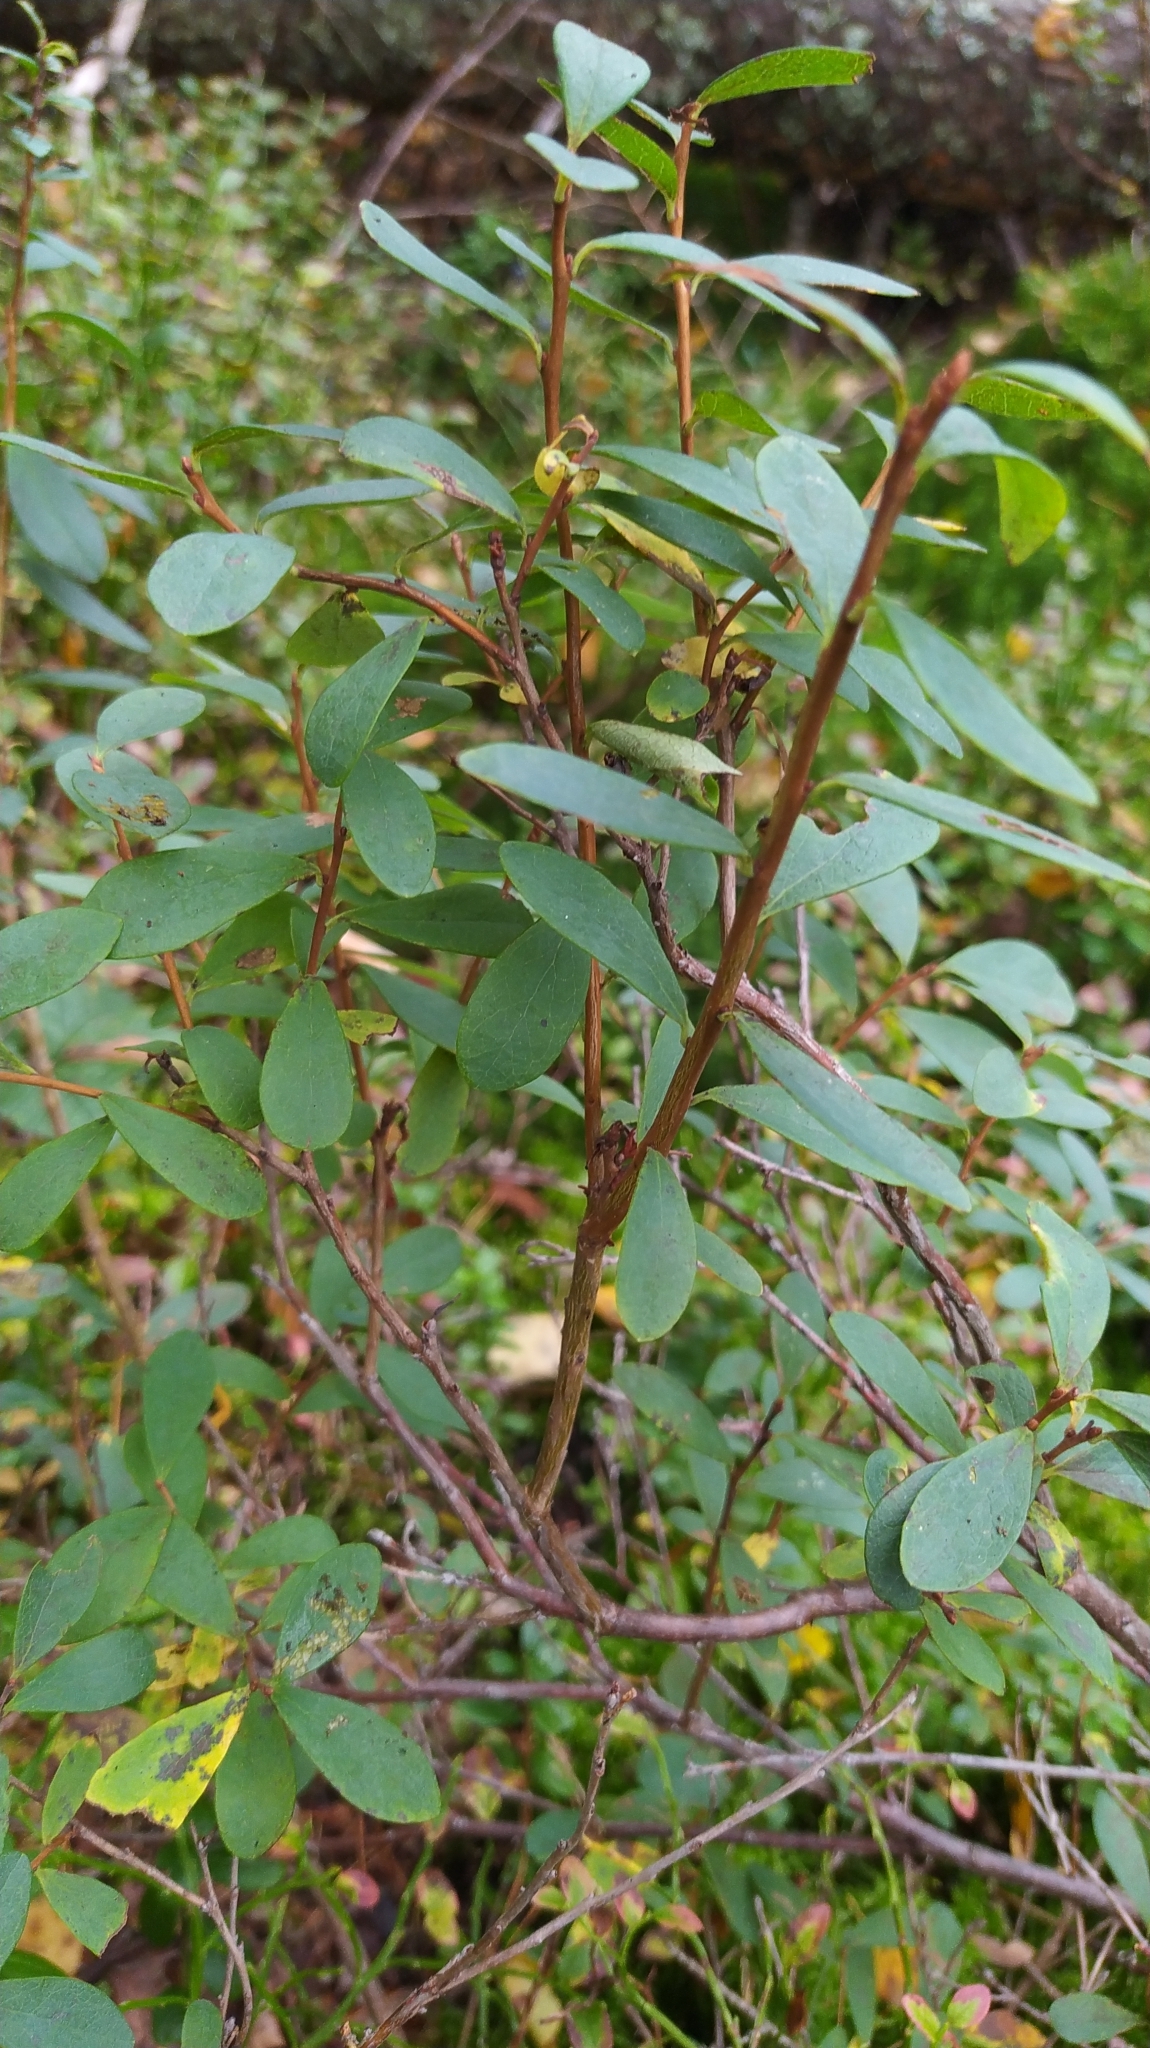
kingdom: Plantae
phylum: Tracheophyta
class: Magnoliopsida
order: Ericales
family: Ericaceae
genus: Vaccinium
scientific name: Vaccinium uliginosum
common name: Bog bilberry
